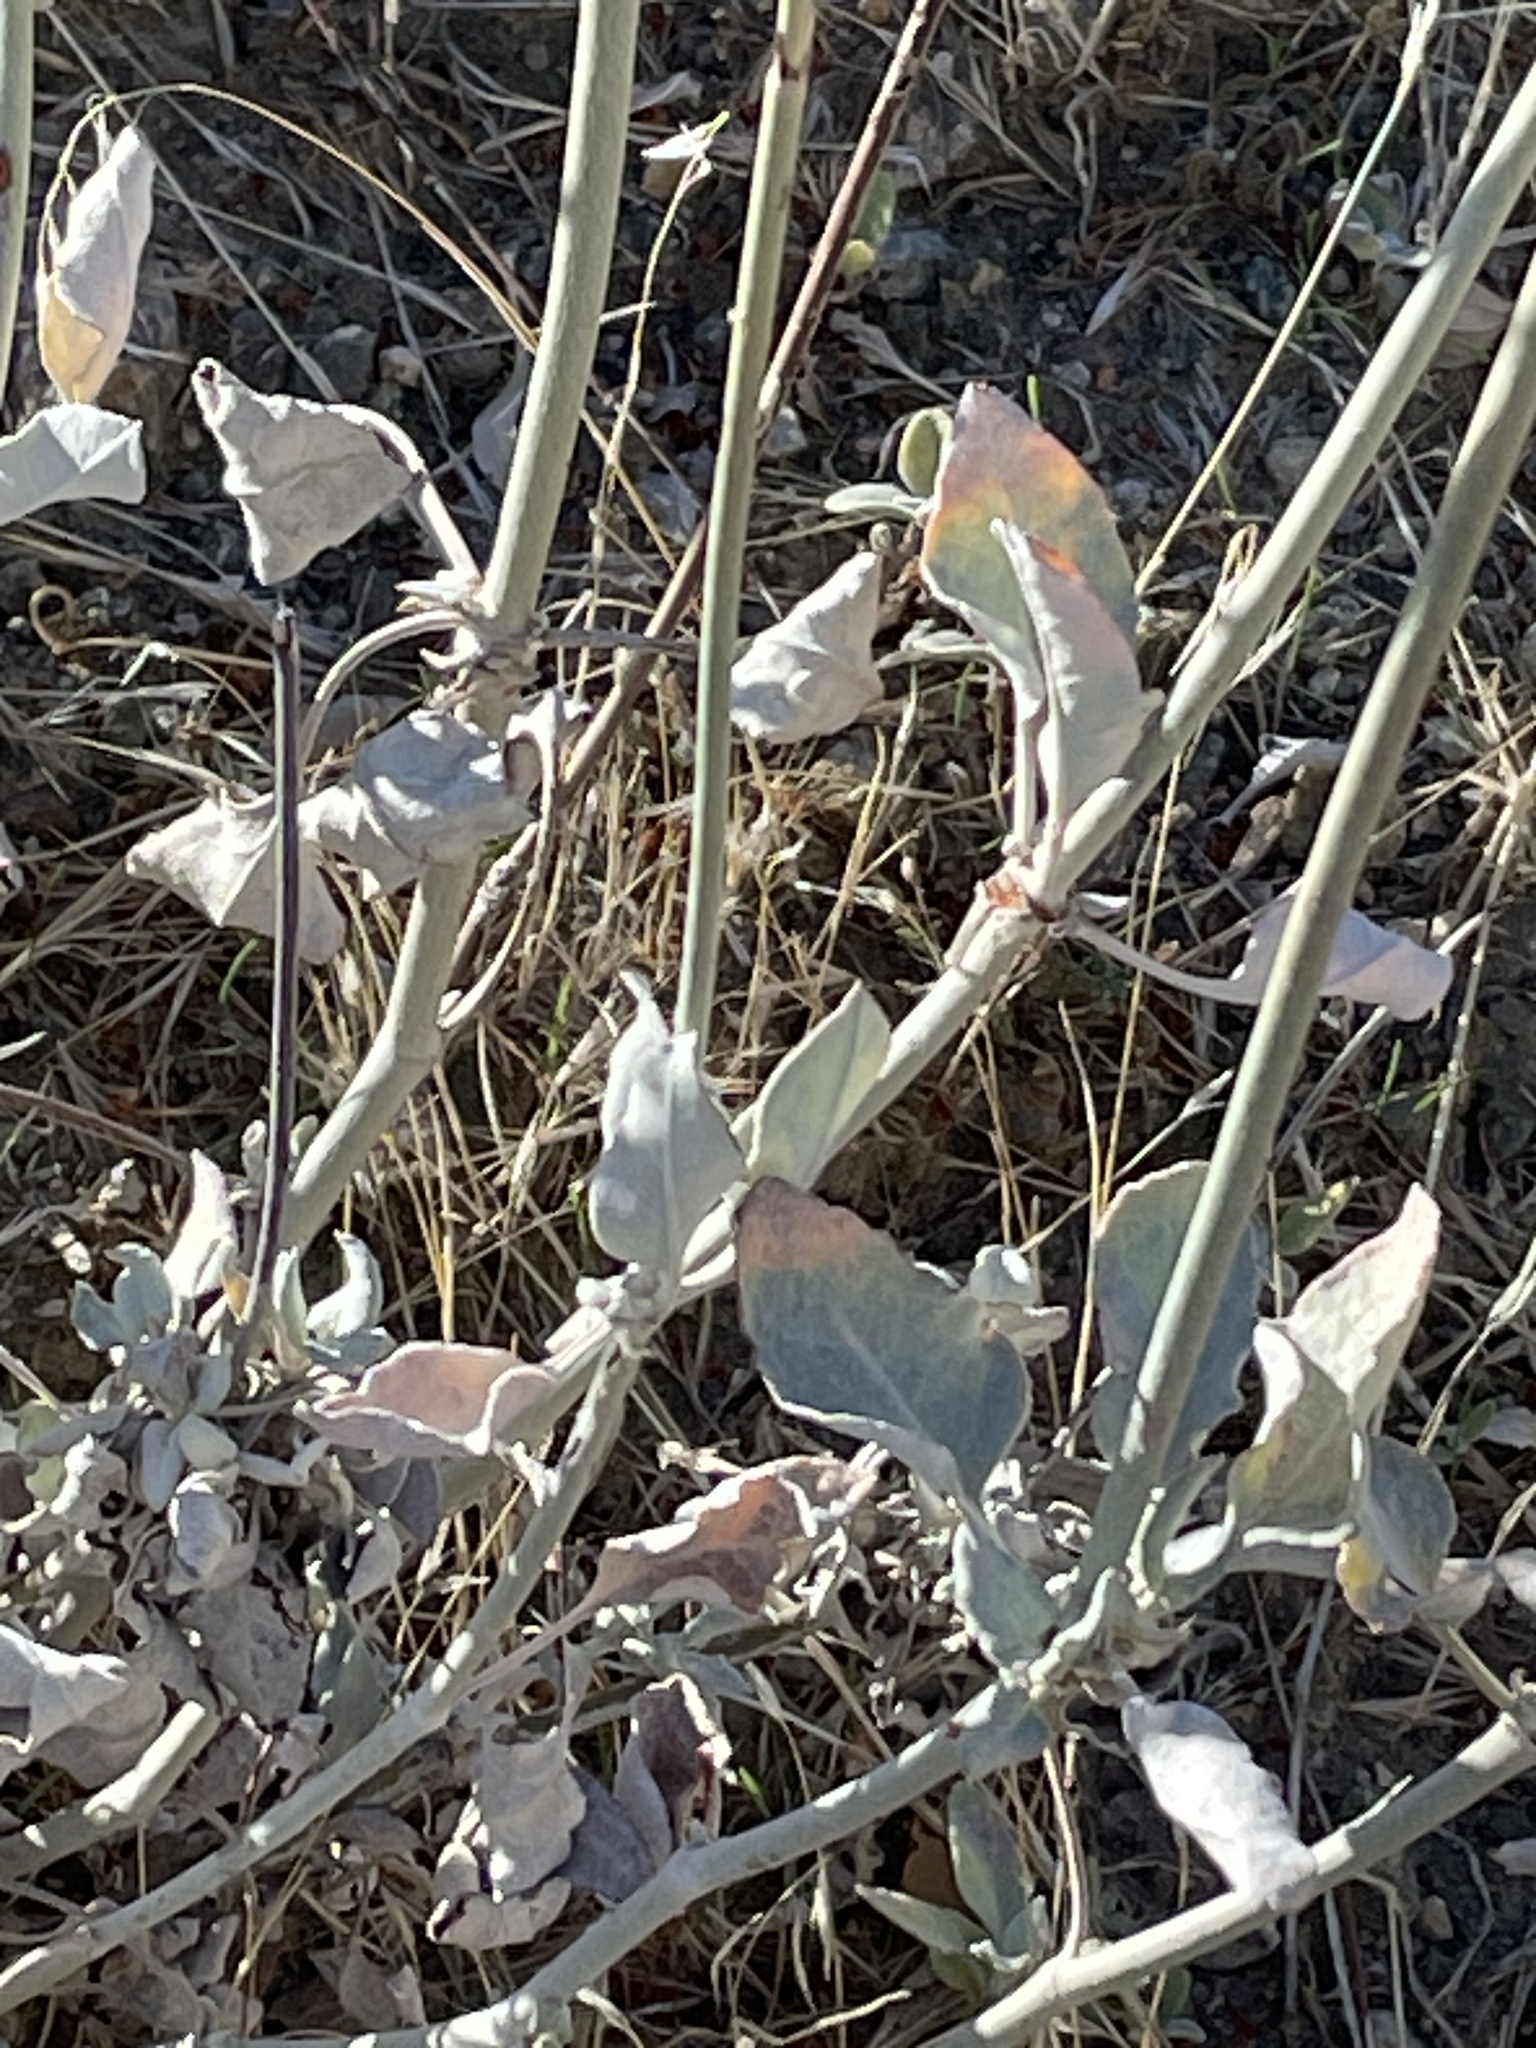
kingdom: Plantae
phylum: Tracheophyta
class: Magnoliopsida
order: Caryophyllales
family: Polygonaceae
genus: Eriogonum
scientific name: Eriogonum elongatum
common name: Long-stem wild buckwheat
